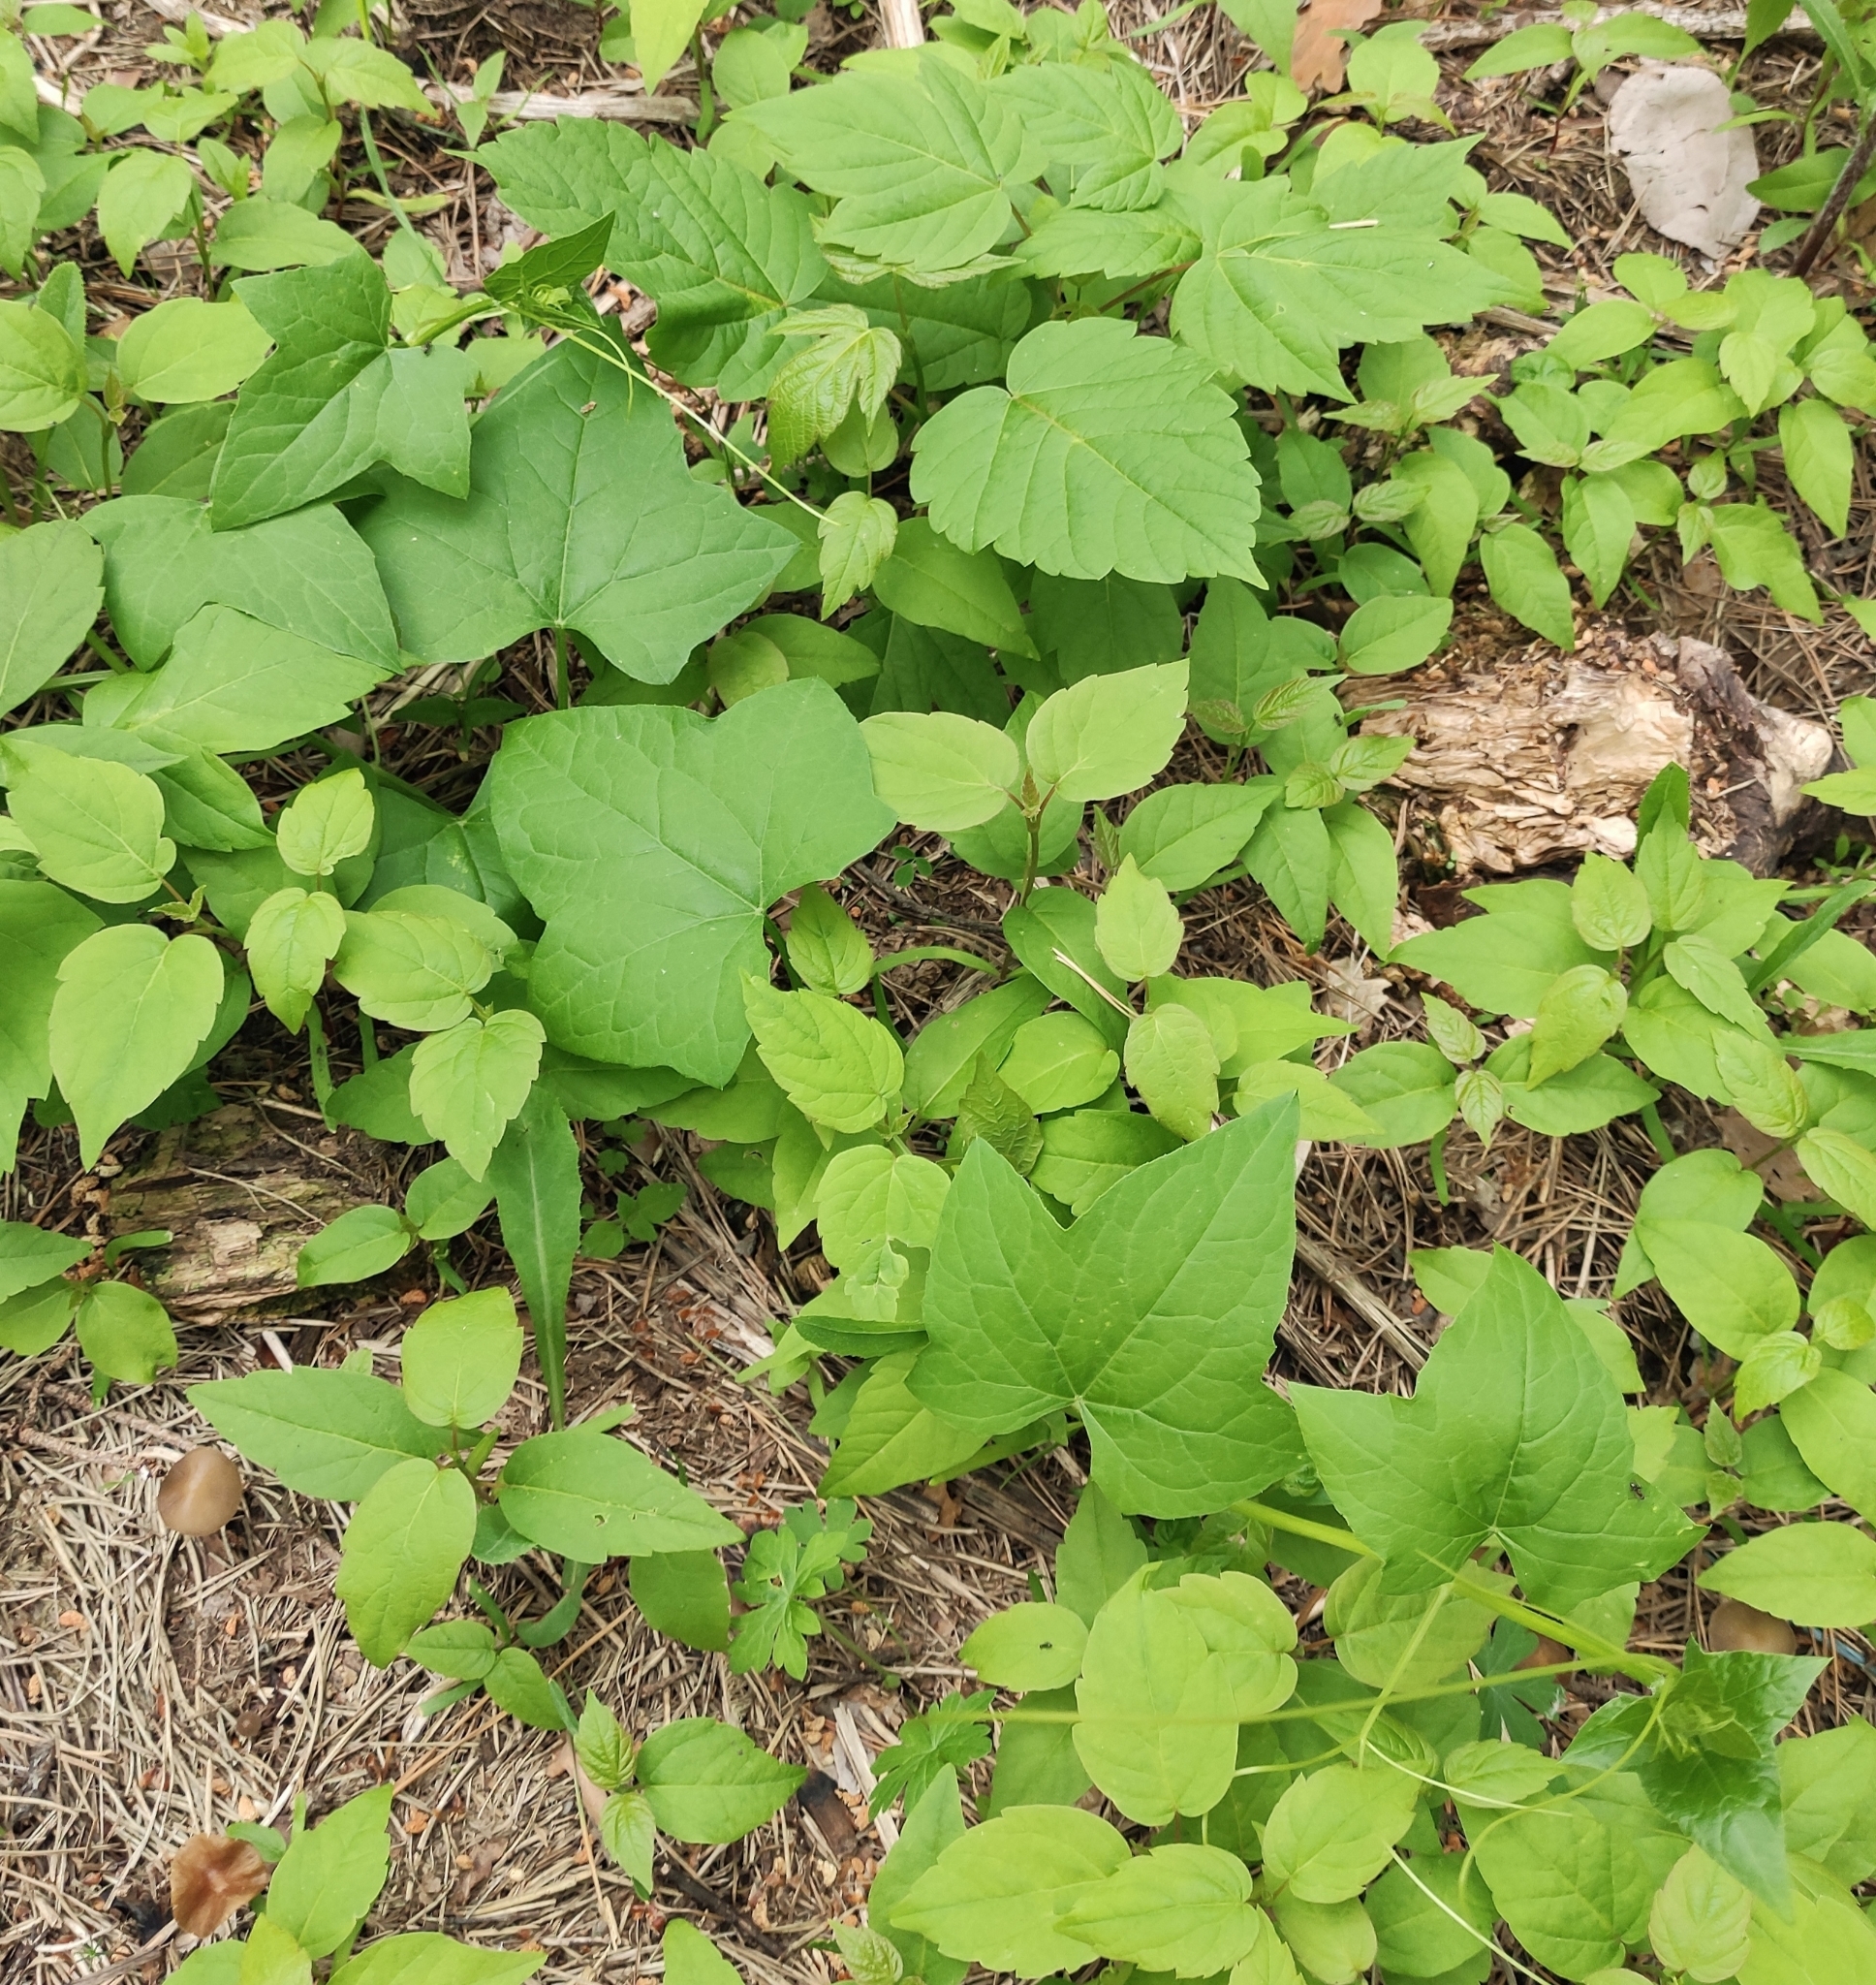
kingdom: Plantae
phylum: Tracheophyta
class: Magnoliopsida
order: Cucurbitales
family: Cucurbitaceae
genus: Echinocystis
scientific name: Echinocystis lobata
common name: Wild cucumber
